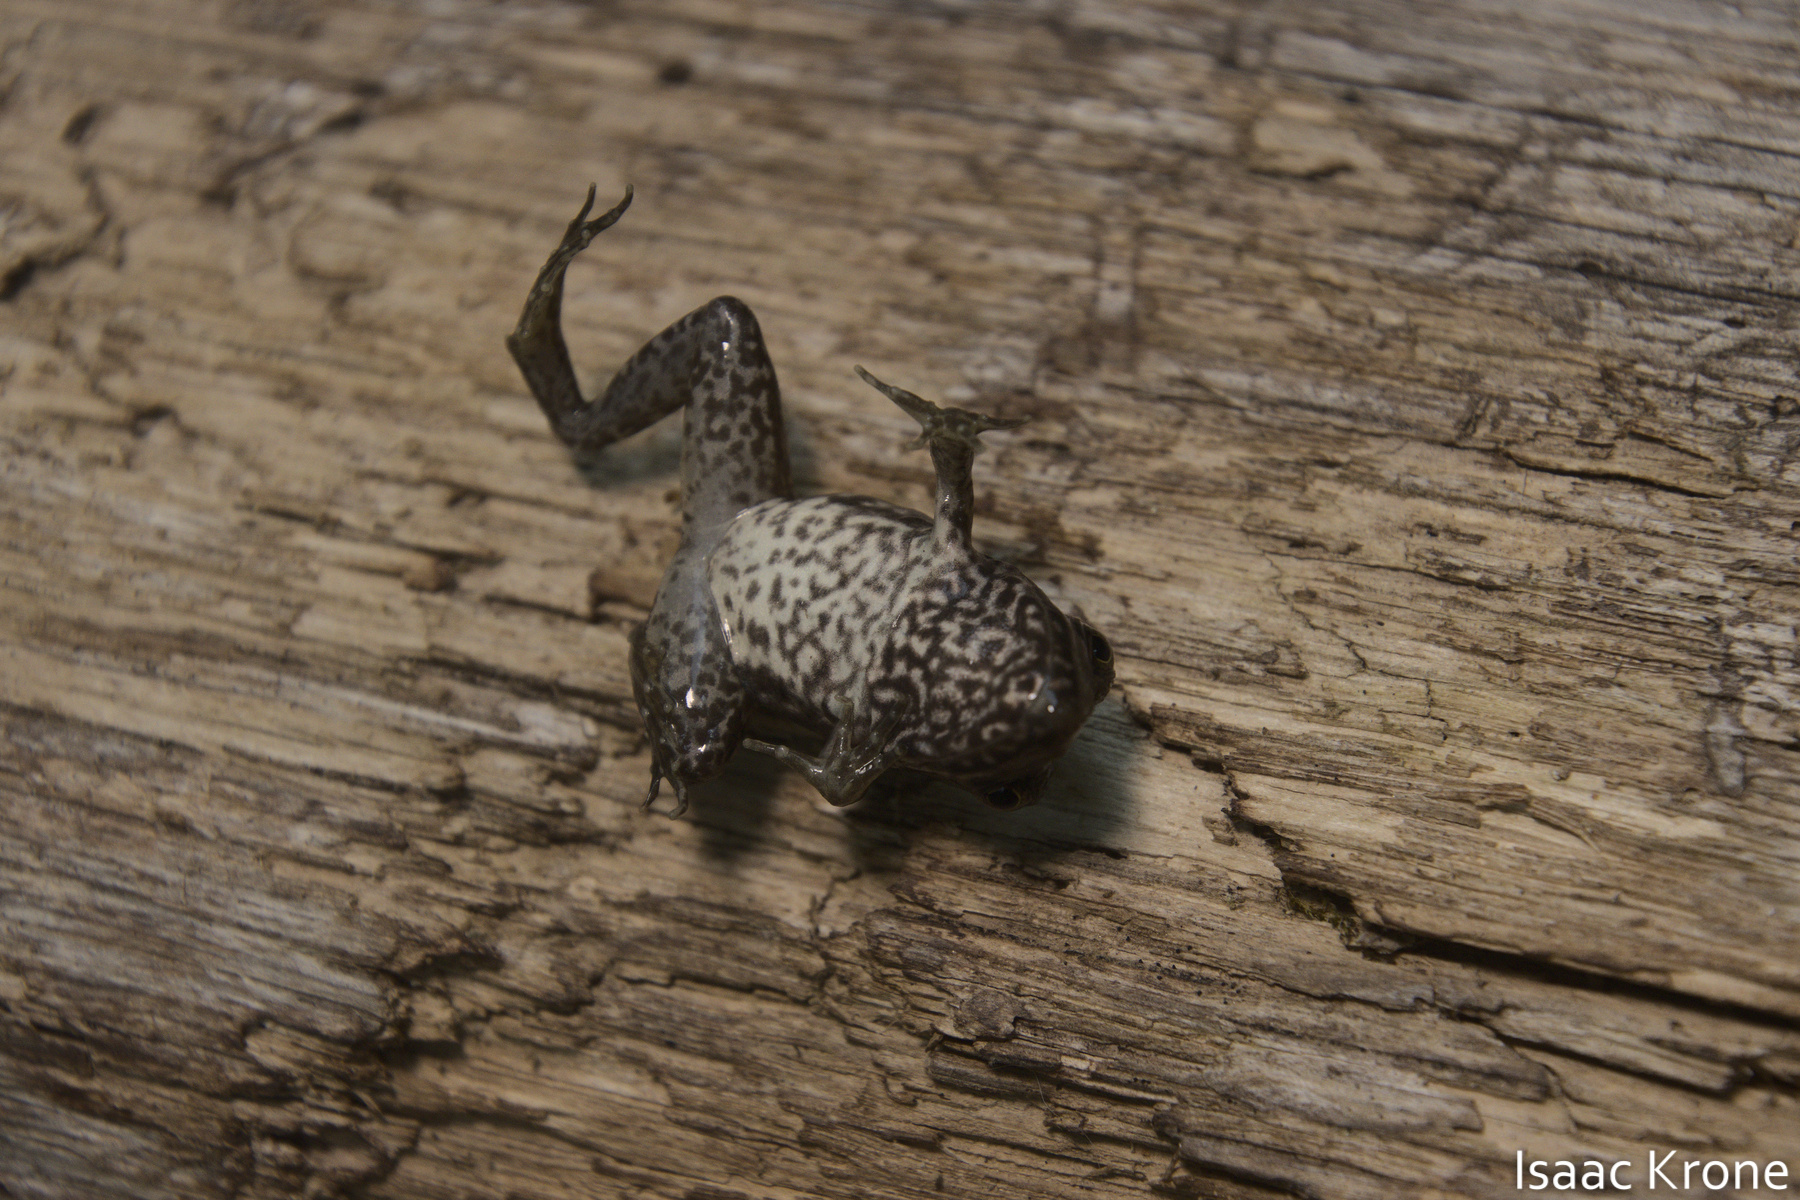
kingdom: Animalia
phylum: Chordata
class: Amphibia
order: Anura
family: Ranidae
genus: Lithobates
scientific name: Lithobates clamitans
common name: Green frog
